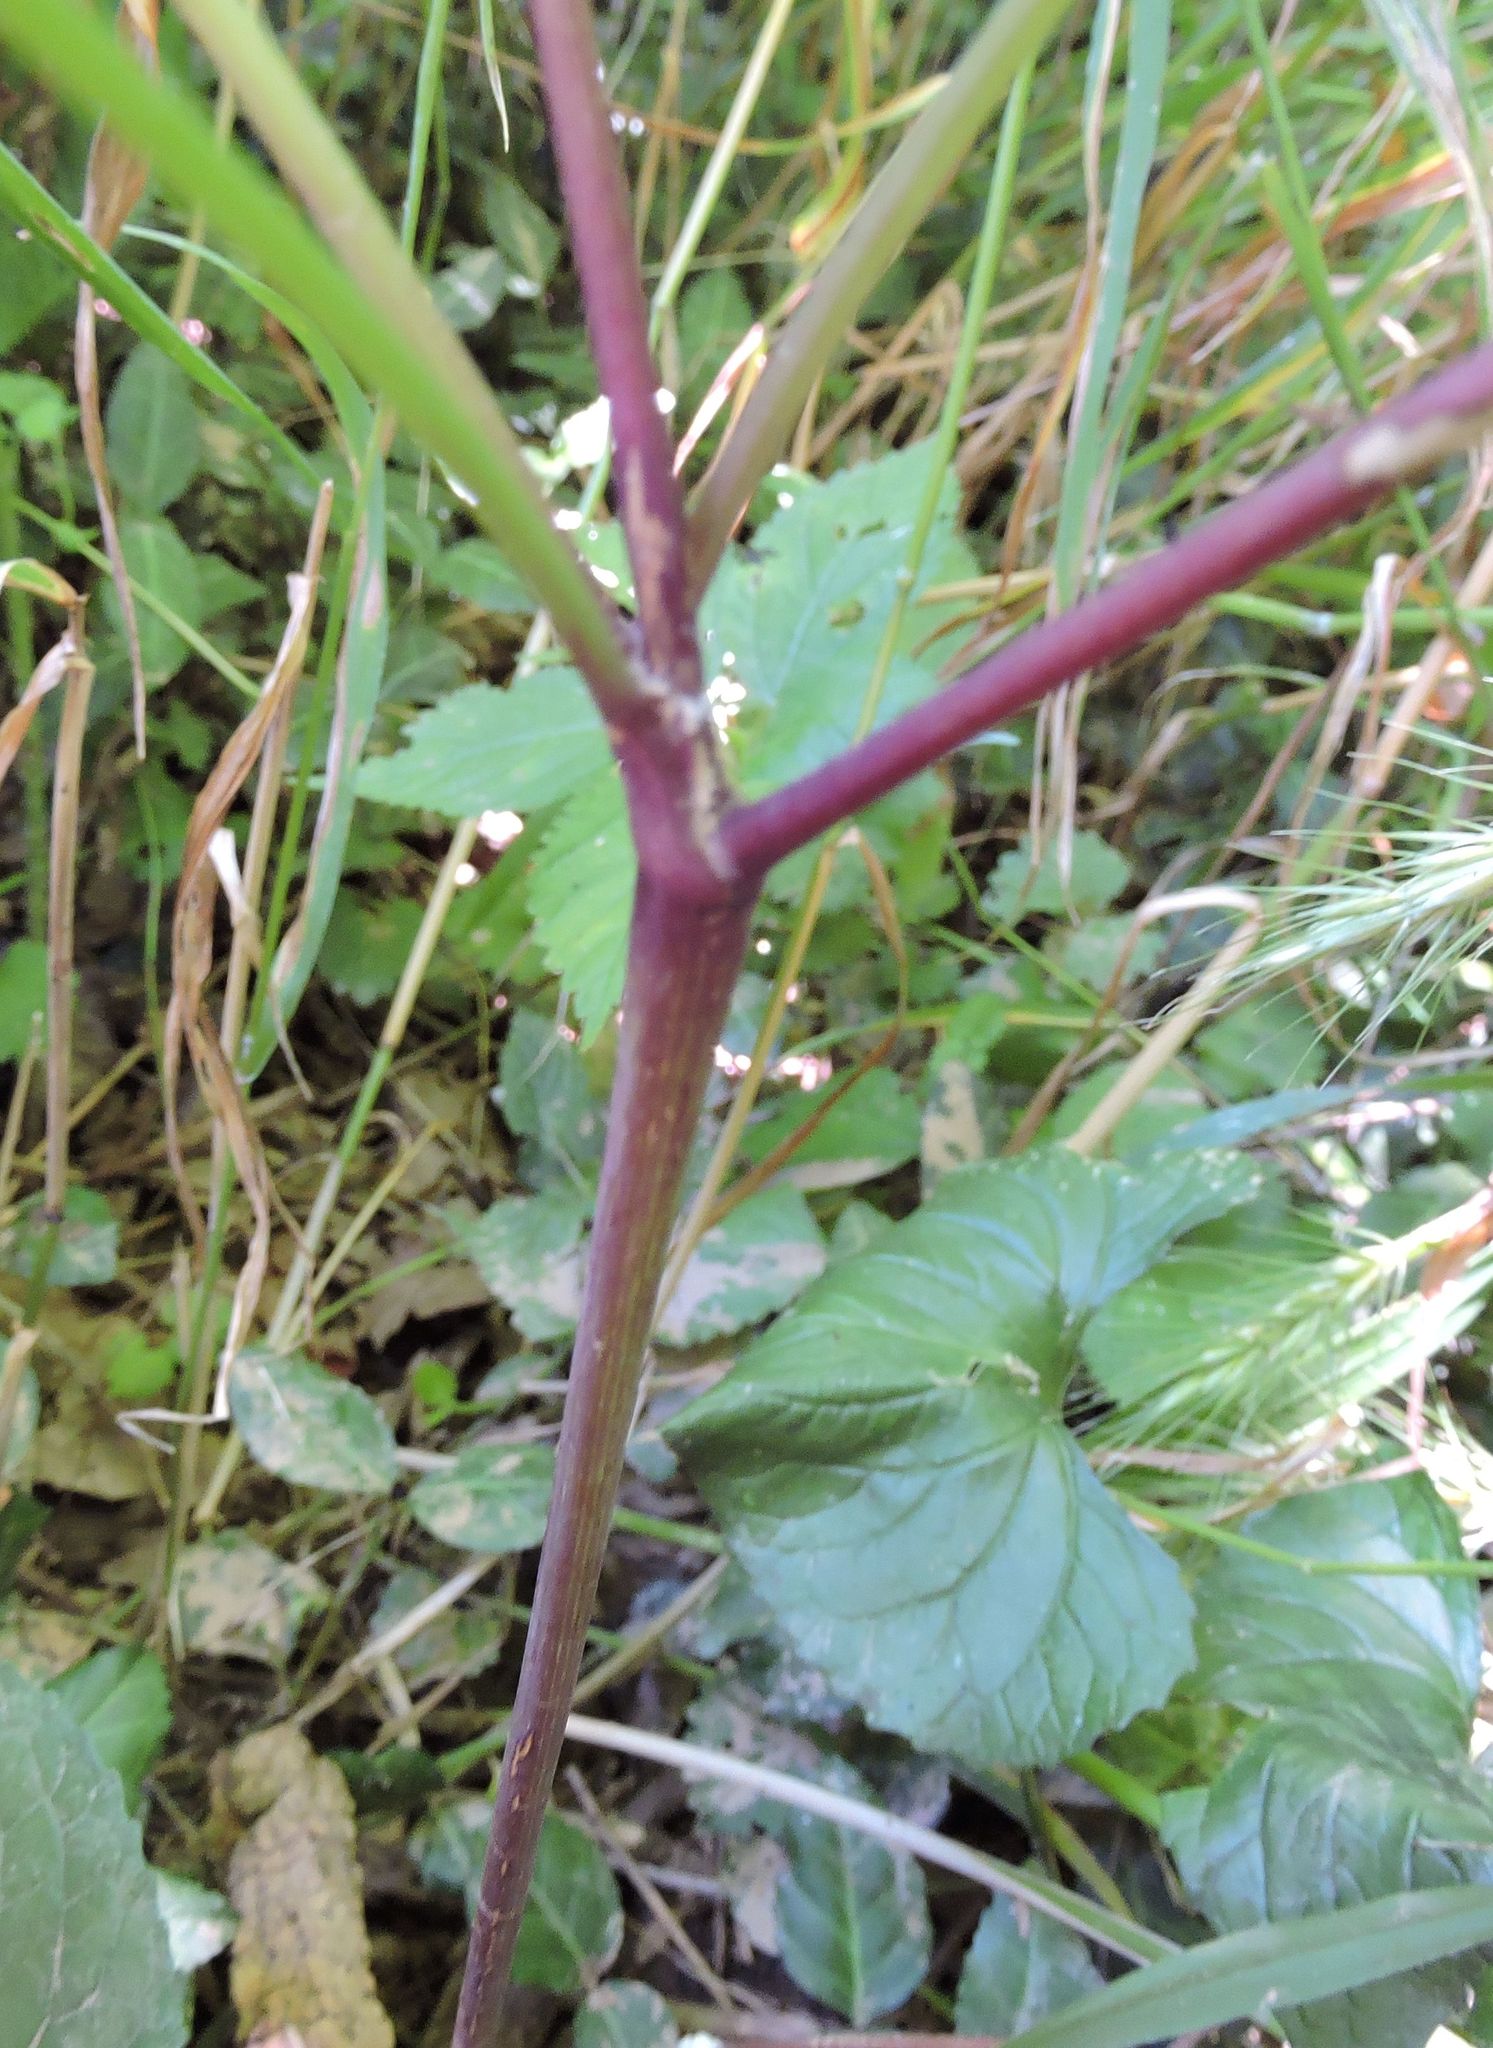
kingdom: Plantae
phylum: Tracheophyta
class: Magnoliopsida
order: Apiales
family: Apiaceae
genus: Osmorhiza
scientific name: Osmorhiza longistylis
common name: Smooth sweet cicely
